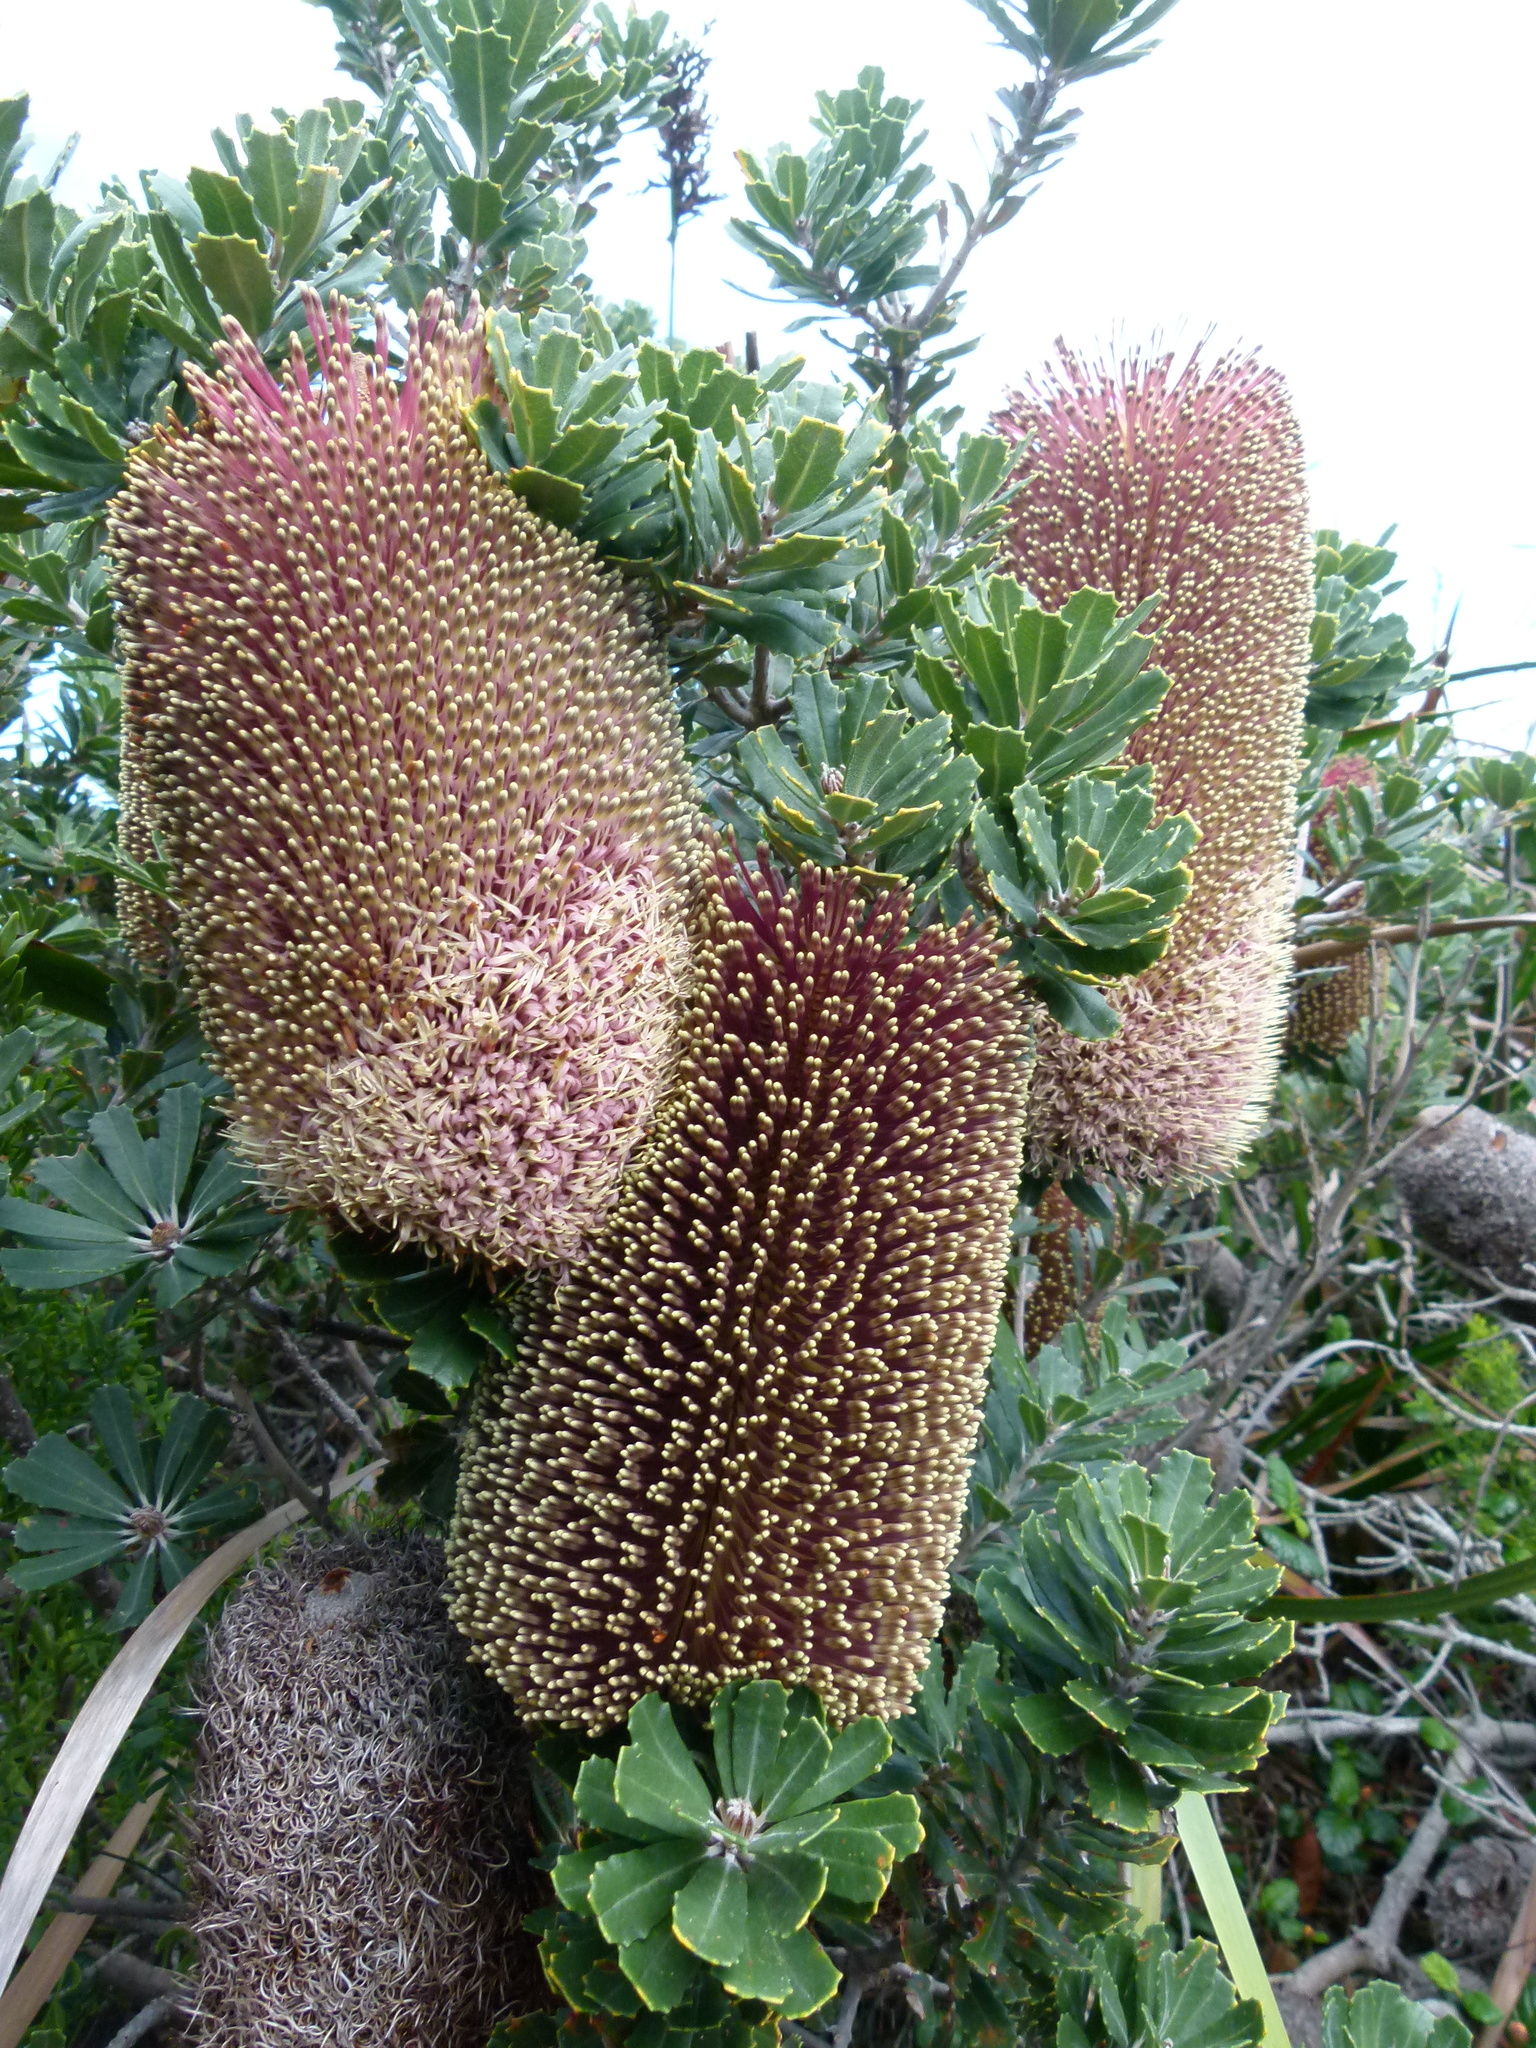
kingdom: Plantae
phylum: Tracheophyta
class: Magnoliopsida
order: Proteales
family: Proteaceae
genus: Banksia
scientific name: Banksia praemorsa
